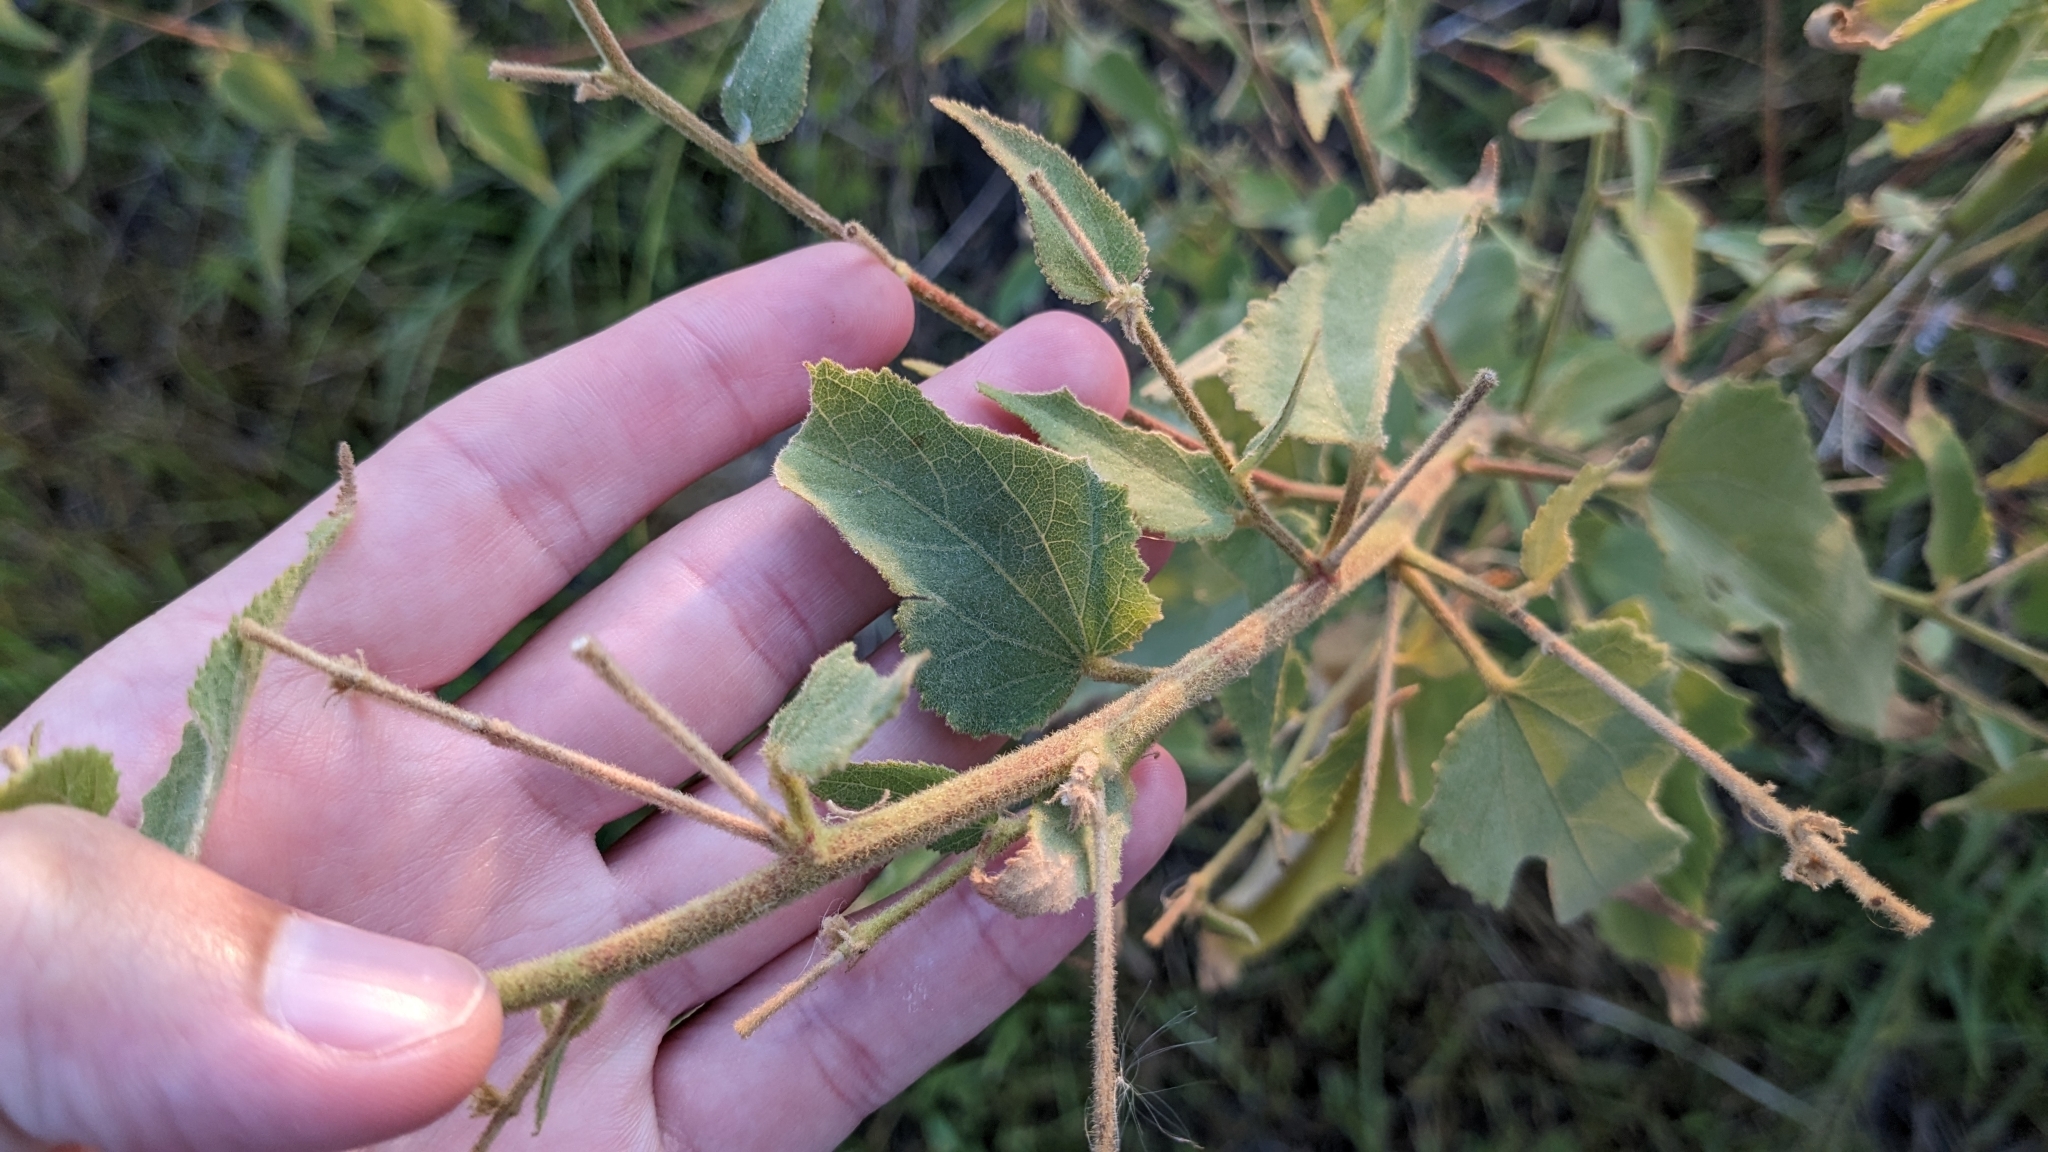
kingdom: Plantae
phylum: Tracheophyta
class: Magnoliopsida
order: Malvales
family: Malvaceae
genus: Kosteletzkya
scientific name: Kosteletzkya pentacarpos
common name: Virginia saltmarsh mallow
